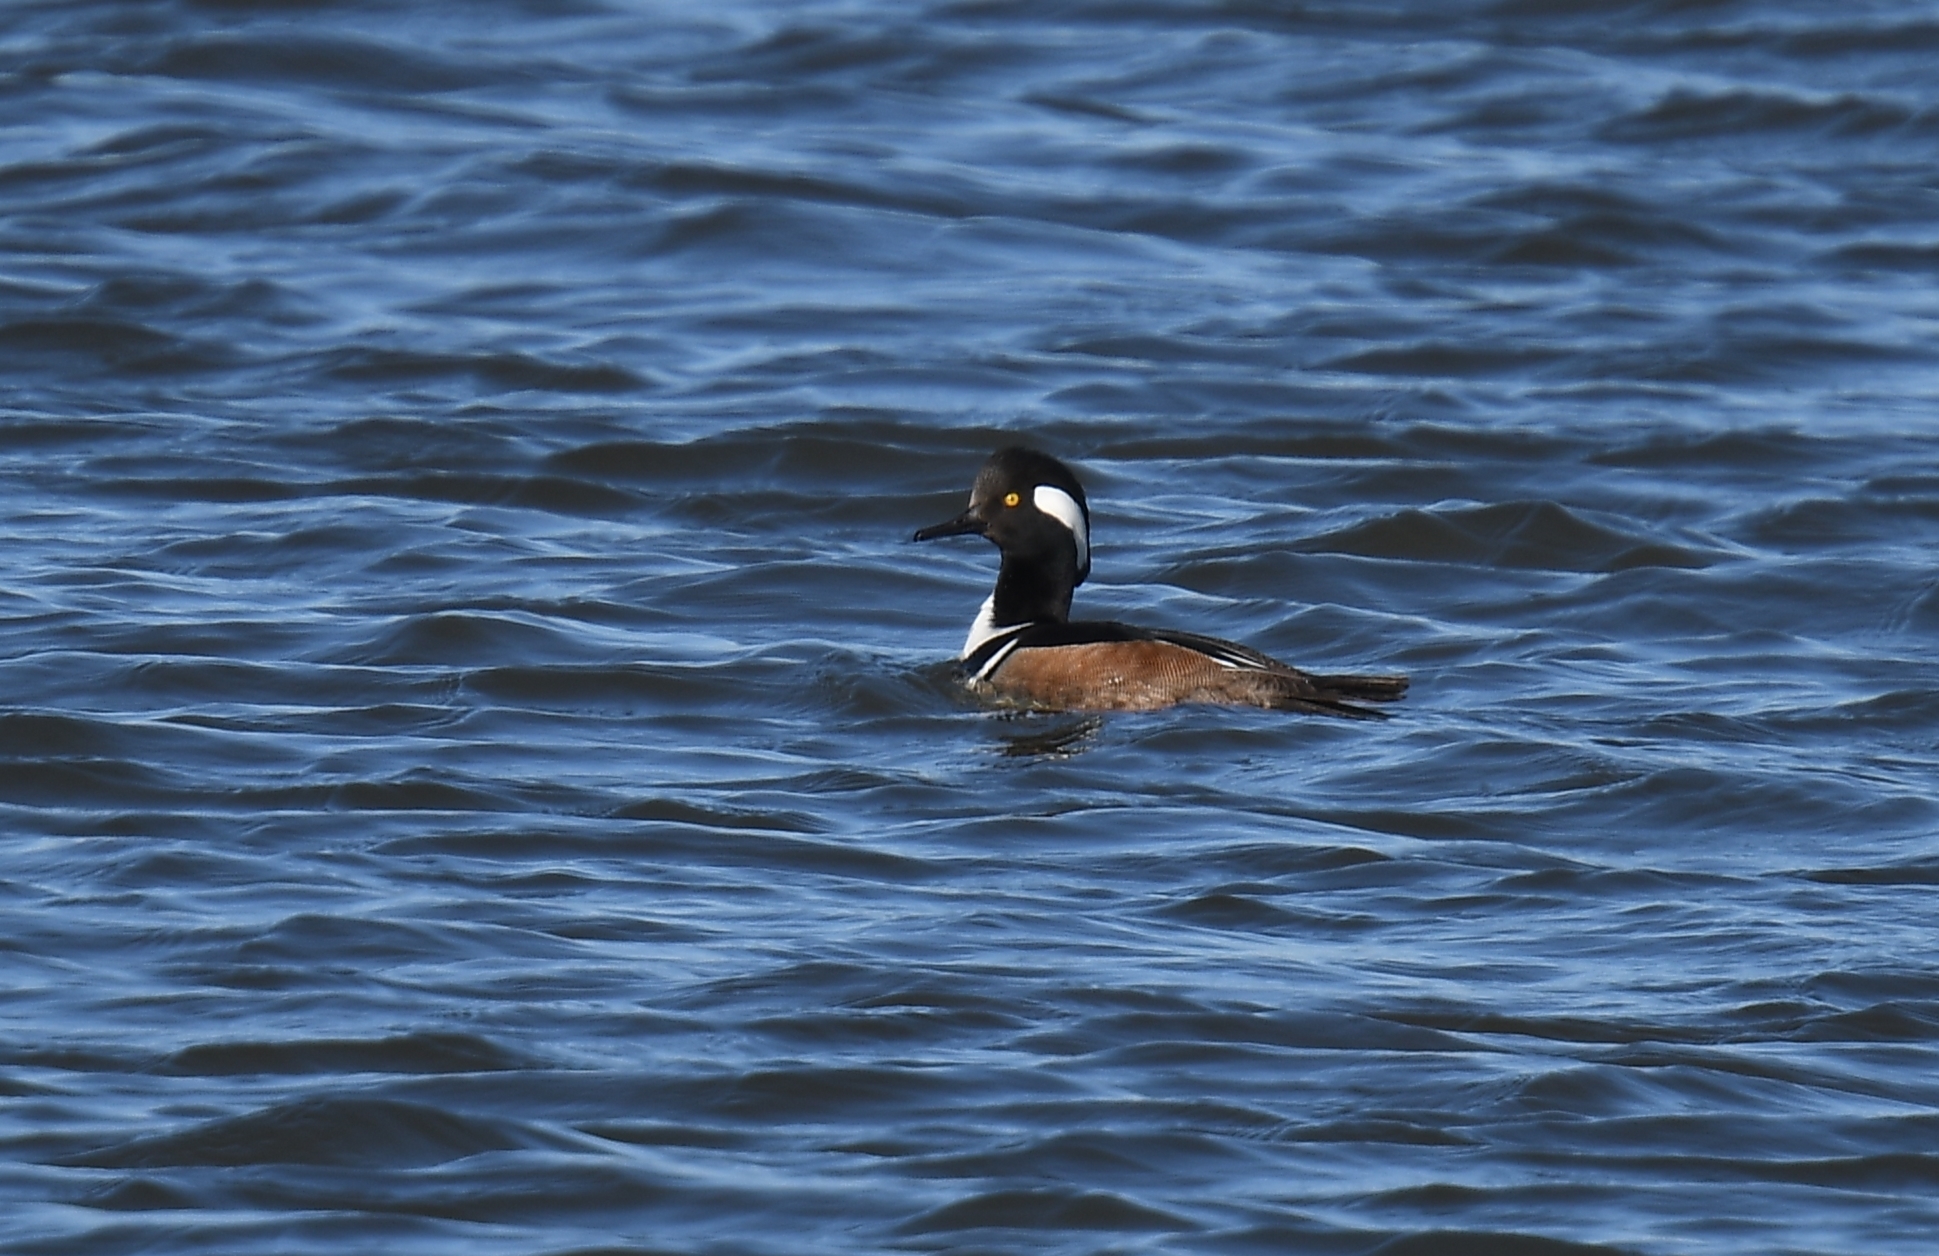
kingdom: Animalia
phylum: Chordata
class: Aves
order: Anseriformes
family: Anatidae
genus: Lophodytes
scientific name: Lophodytes cucullatus
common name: Hooded merganser
